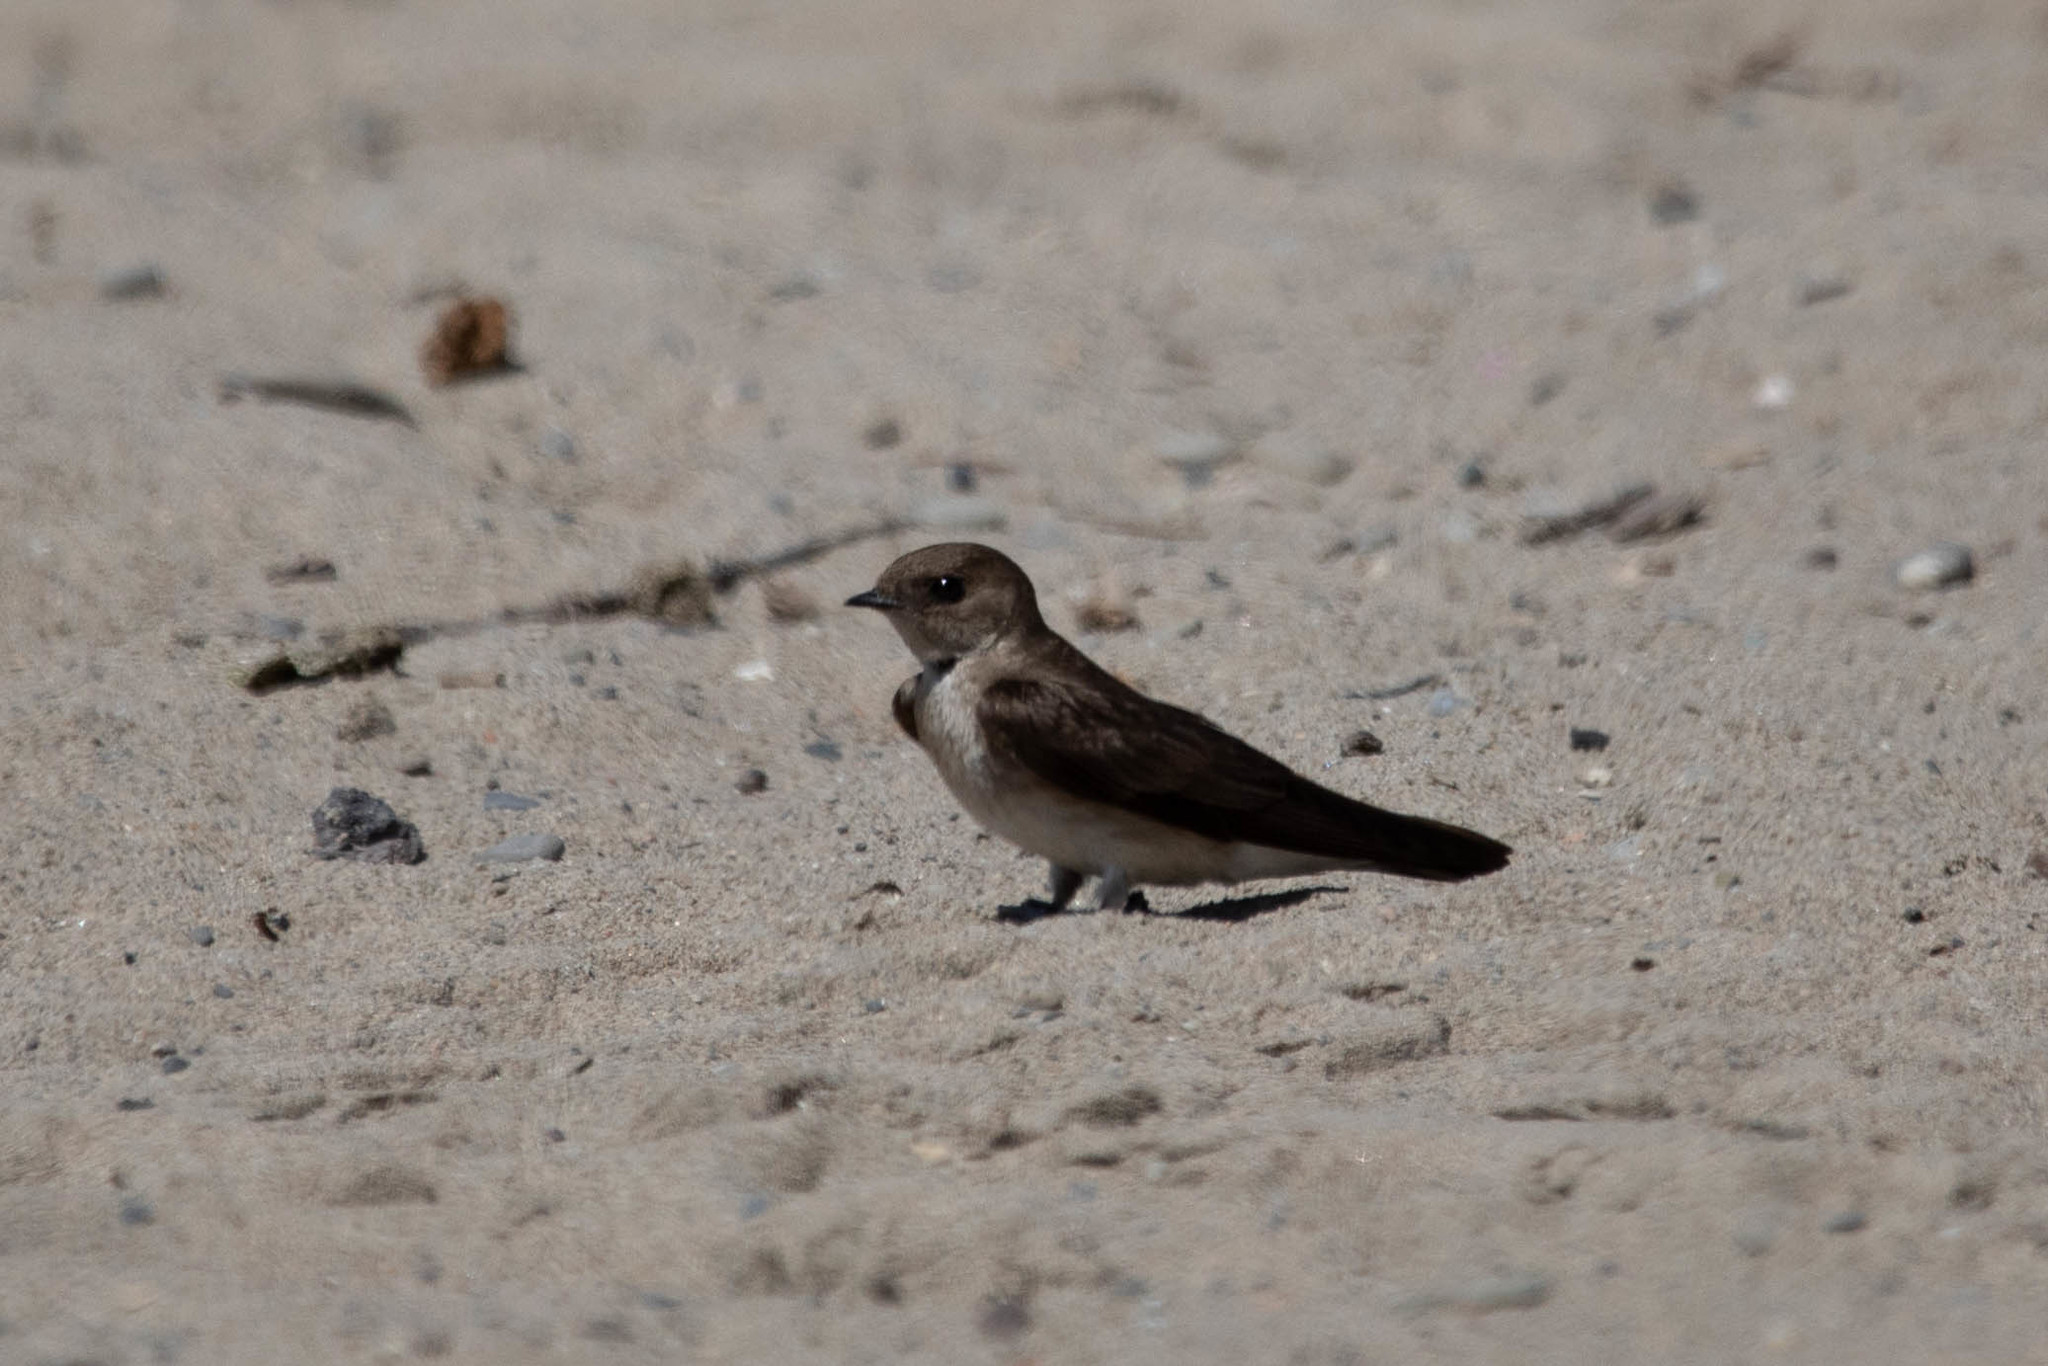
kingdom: Animalia
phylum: Chordata
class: Aves
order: Passeriformes
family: Hirundinidae
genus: Stelgidopteryx
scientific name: Stelgidopteryx serripennis
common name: Northern rough-winged swallow
